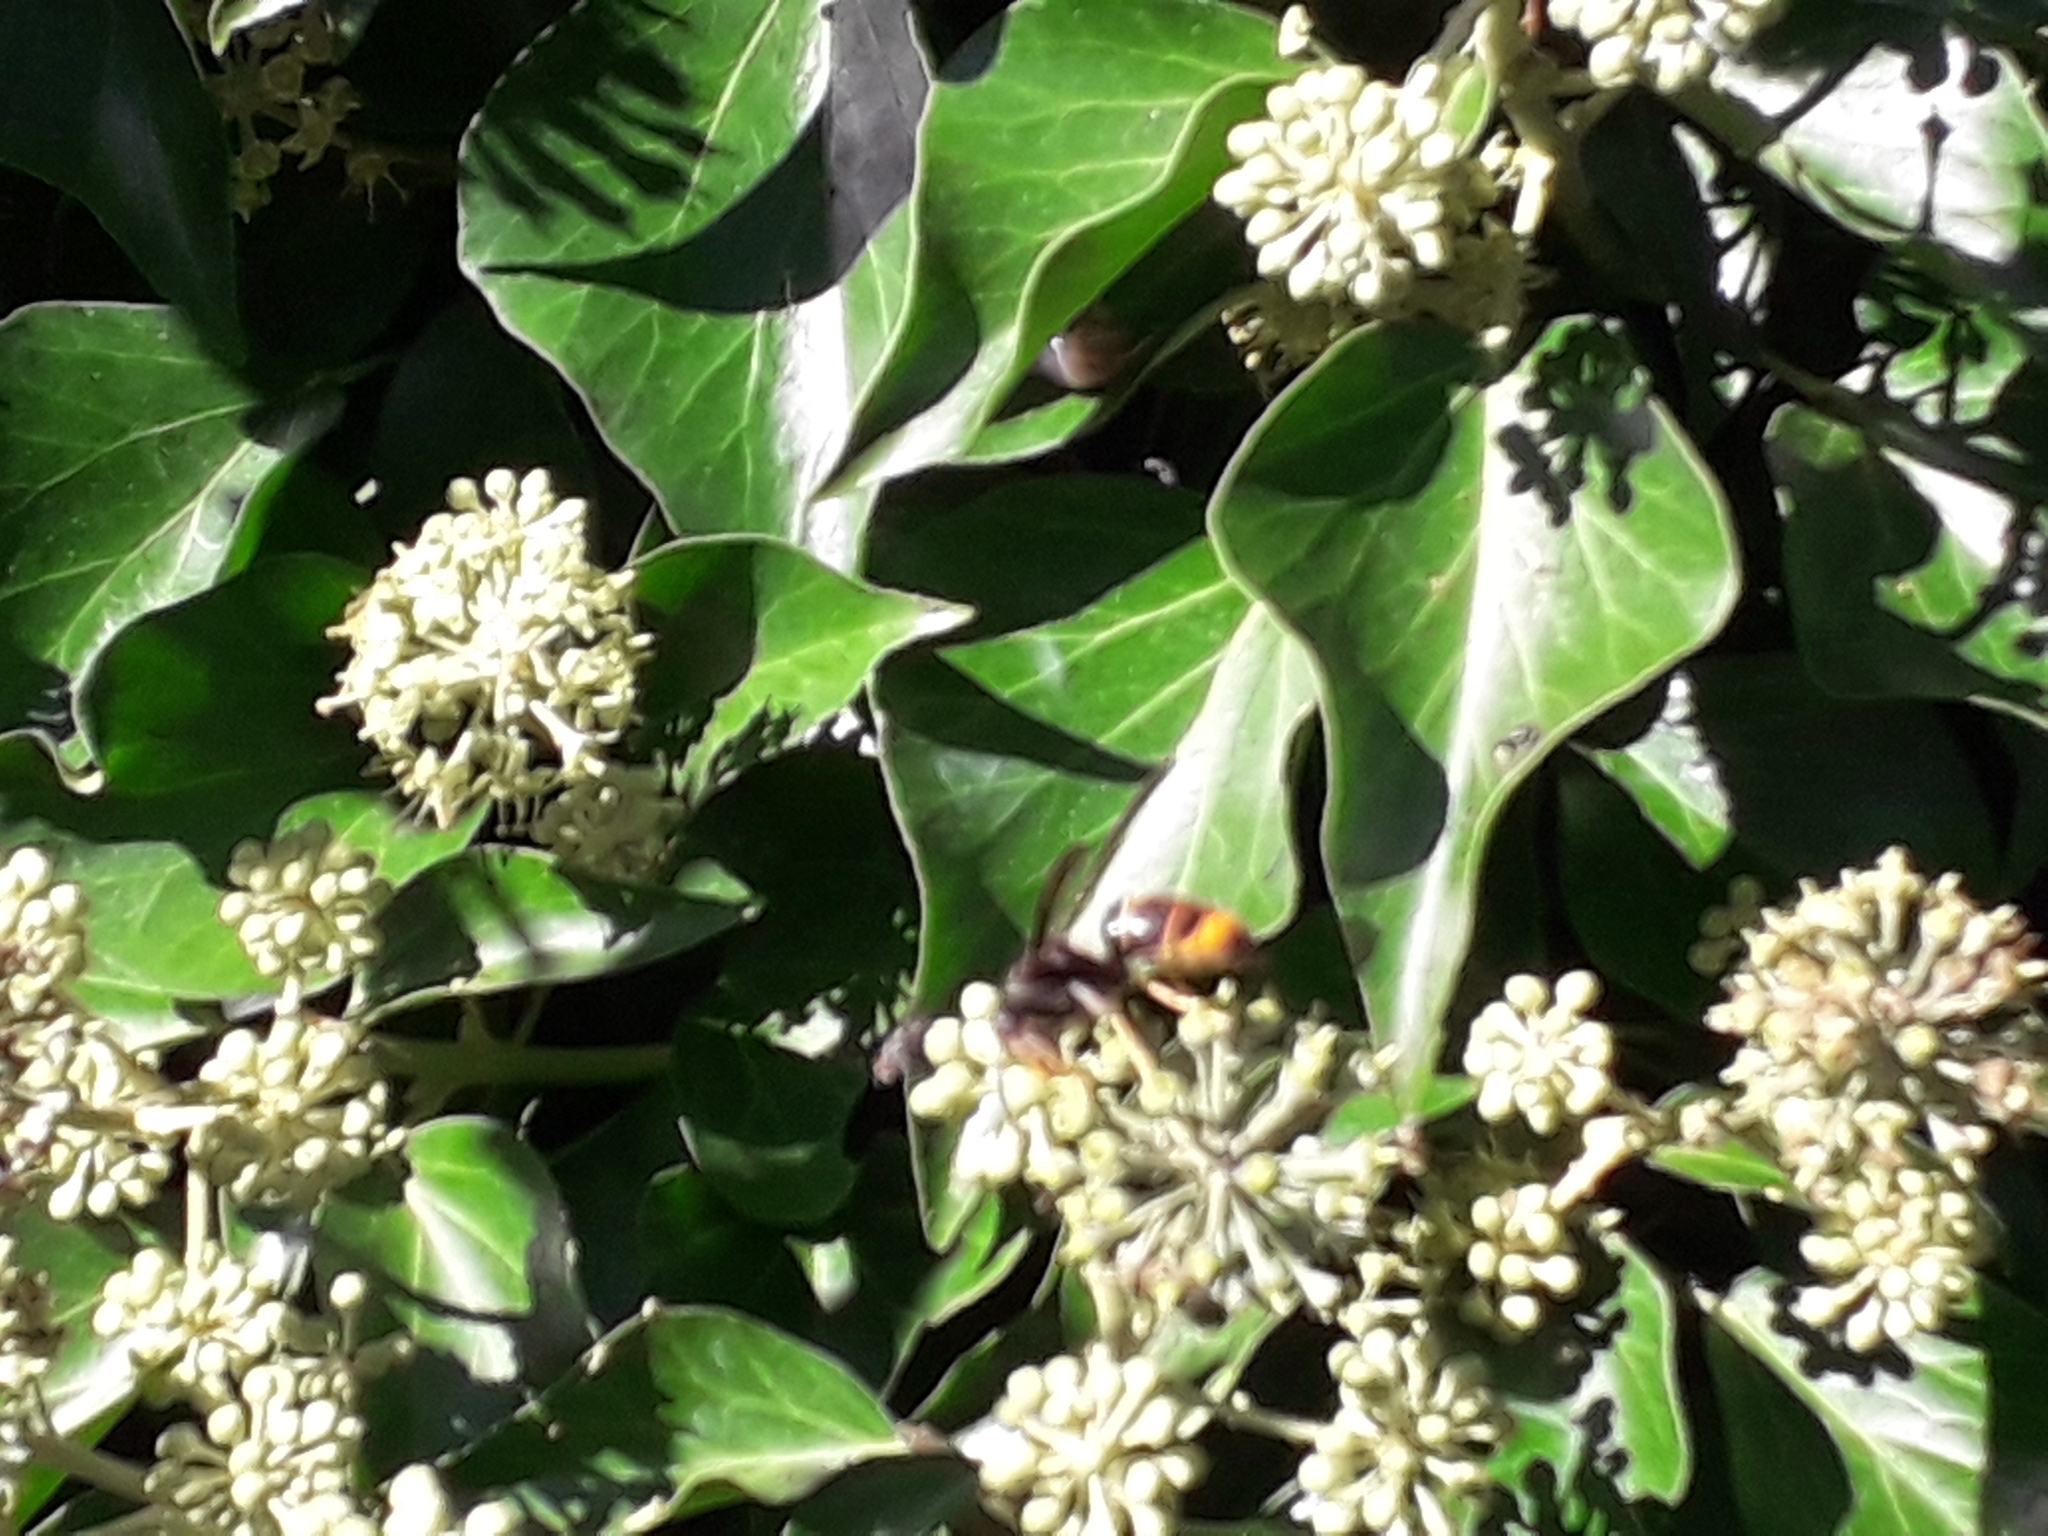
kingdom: Animalia
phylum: Arthropoda
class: Insecta
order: Hymenoptera
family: Vespidae
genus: Vespa
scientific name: Vespa velutina
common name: Asian hornet
